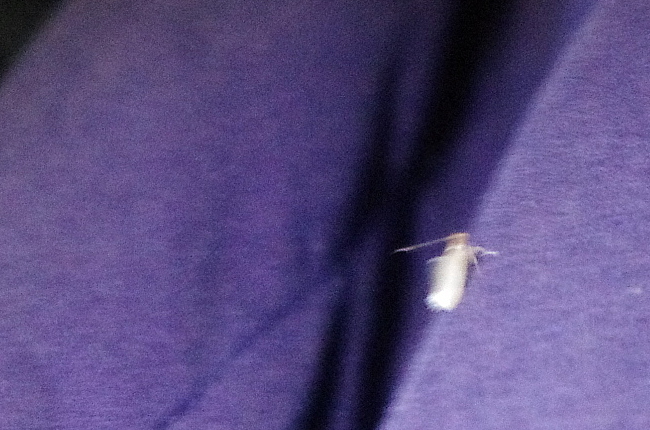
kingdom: Animalia
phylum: Arthropoda
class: Insecta
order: Lepidoptera
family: Tineidae
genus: Tineola
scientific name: Tineola bisselliella
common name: Webbing clothes moth
